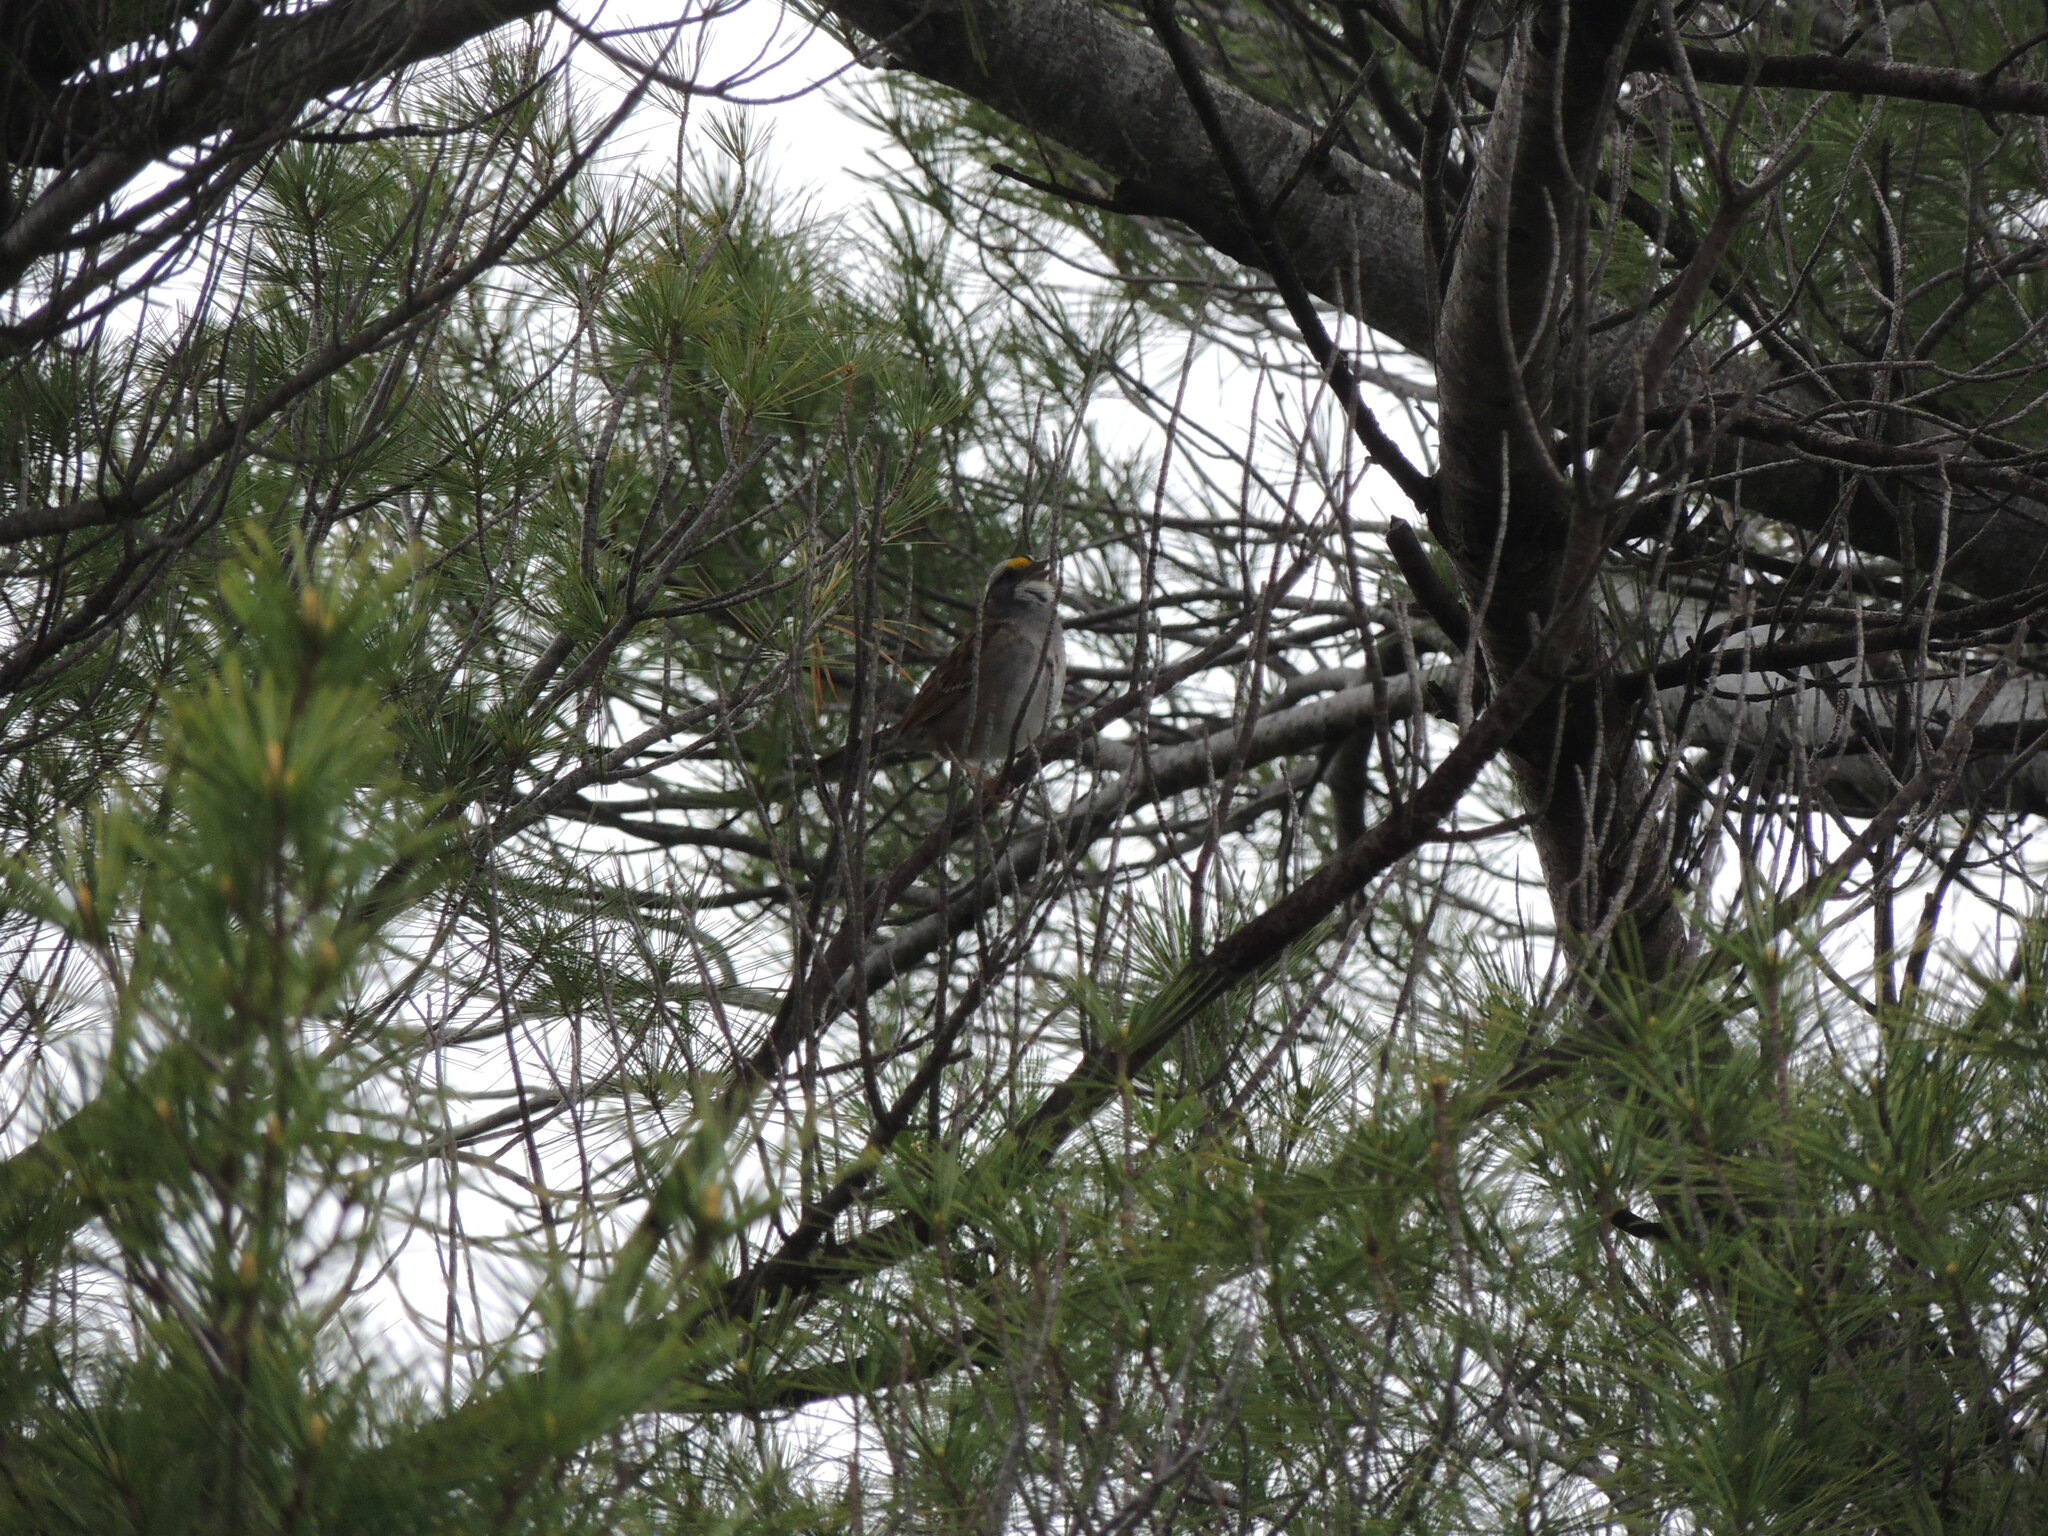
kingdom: Animalia
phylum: Chordata
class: Aves
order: Passeriformes
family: Passerellidae
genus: Zonotrichia
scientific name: Zonotrichia albicollis
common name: White-throated sparrow
